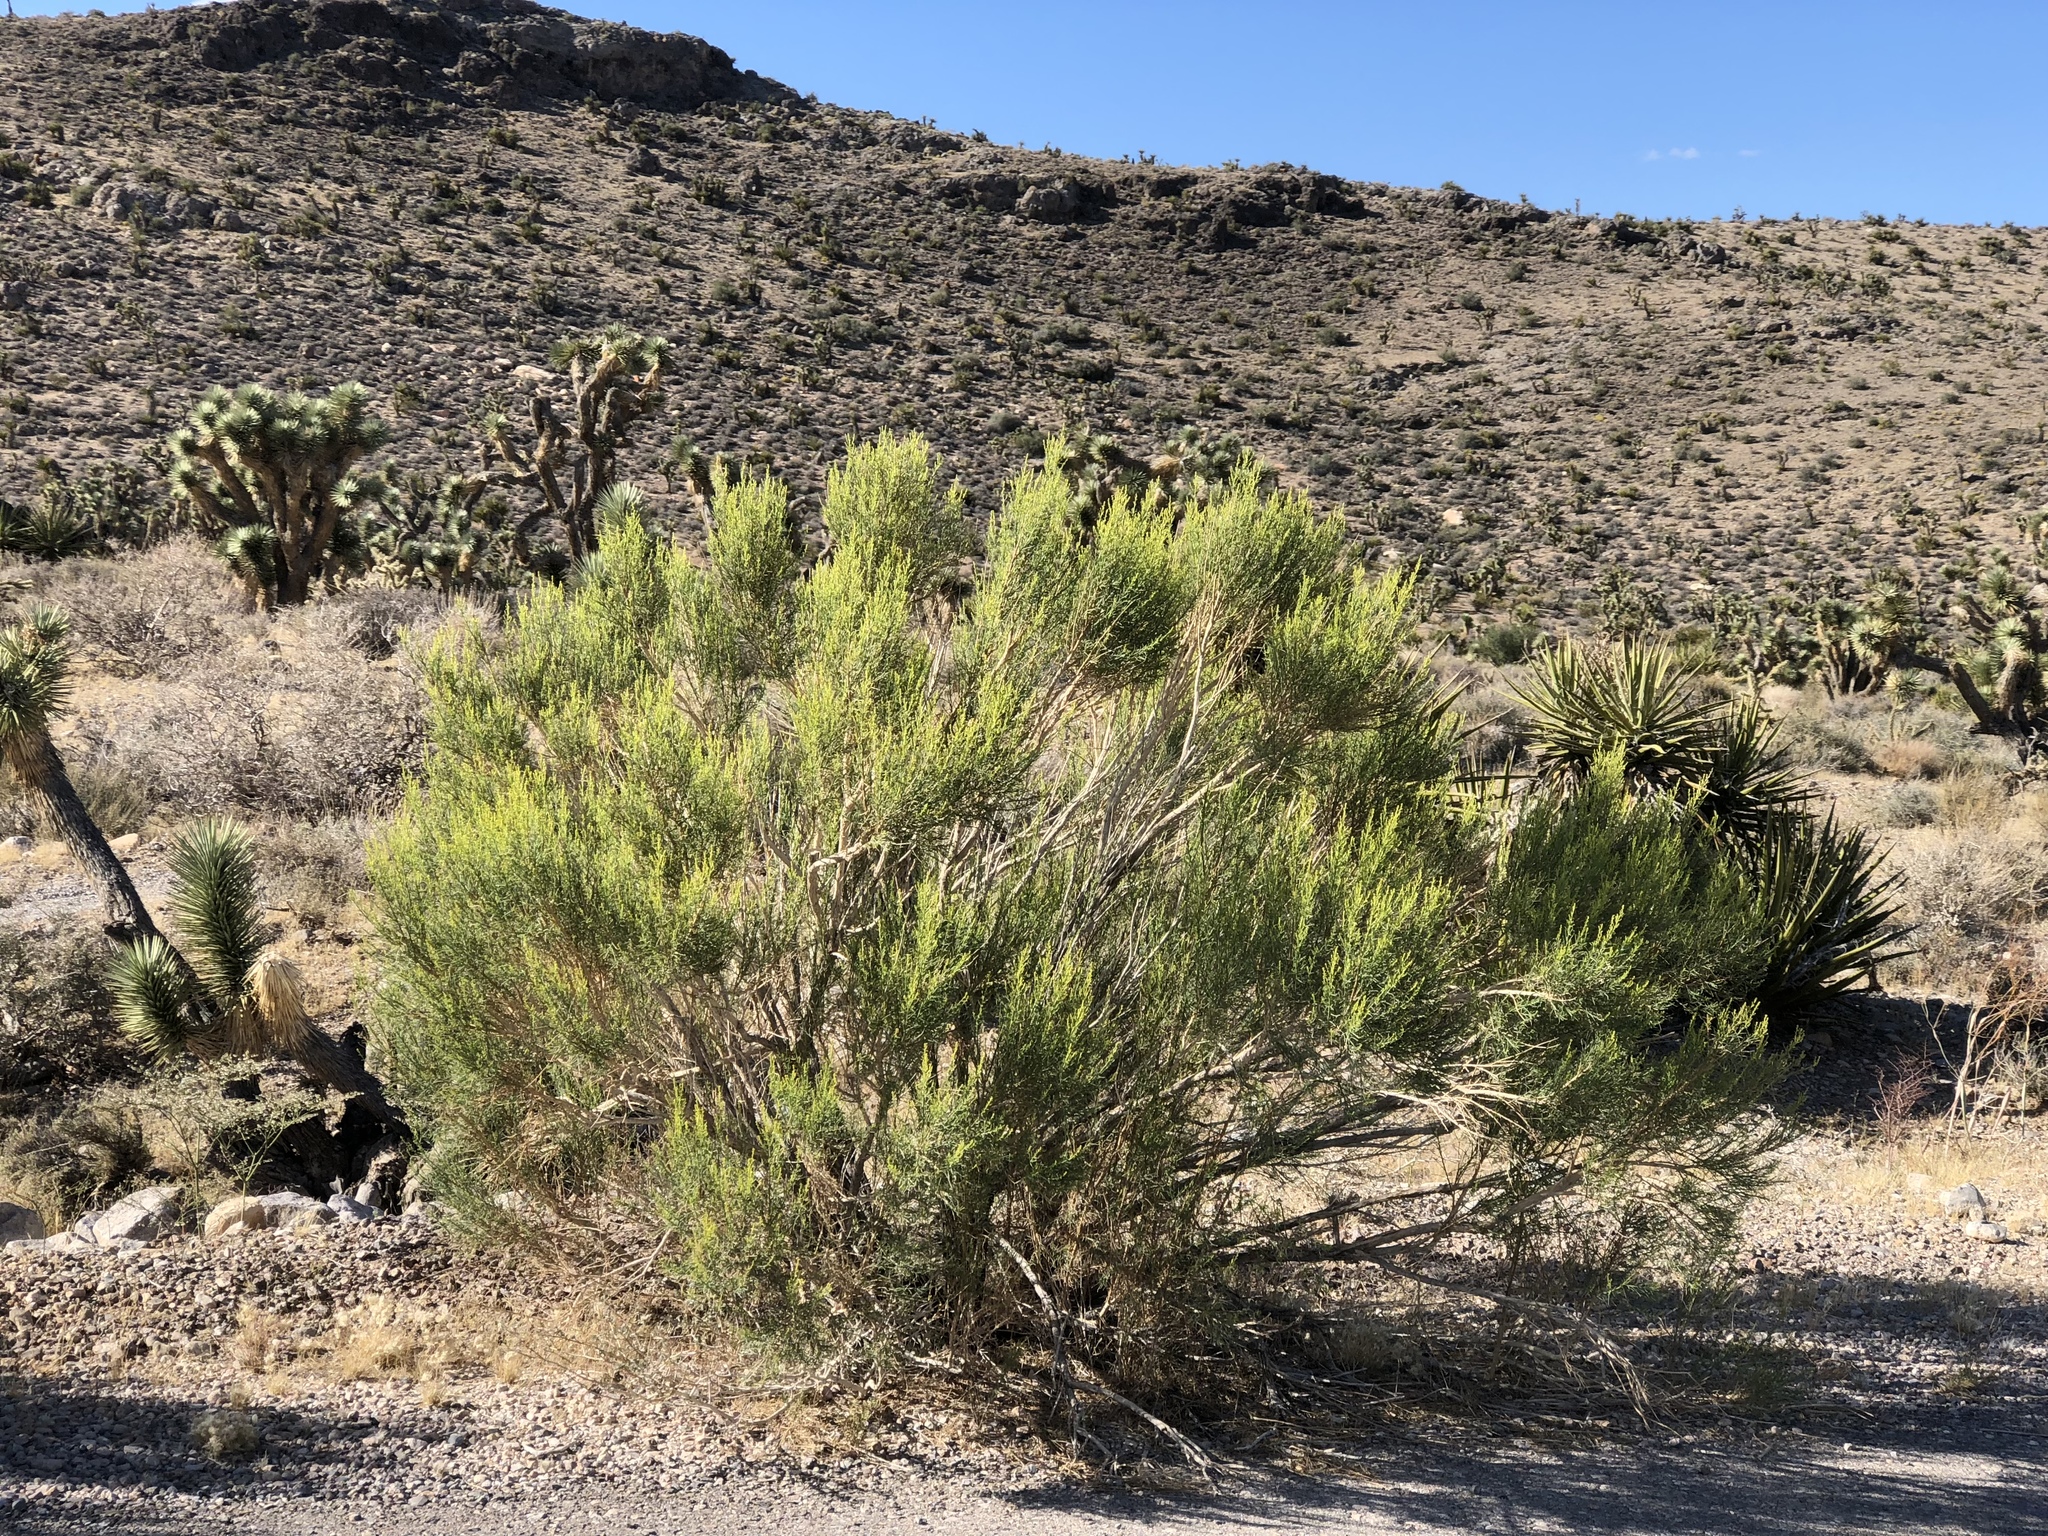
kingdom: Plantae
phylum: Tracheophyta
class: Magnoliopsida
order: Asterales
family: Asteraceae
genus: Baccharis
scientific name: Baccharis sarothroides
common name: Desert-broom
